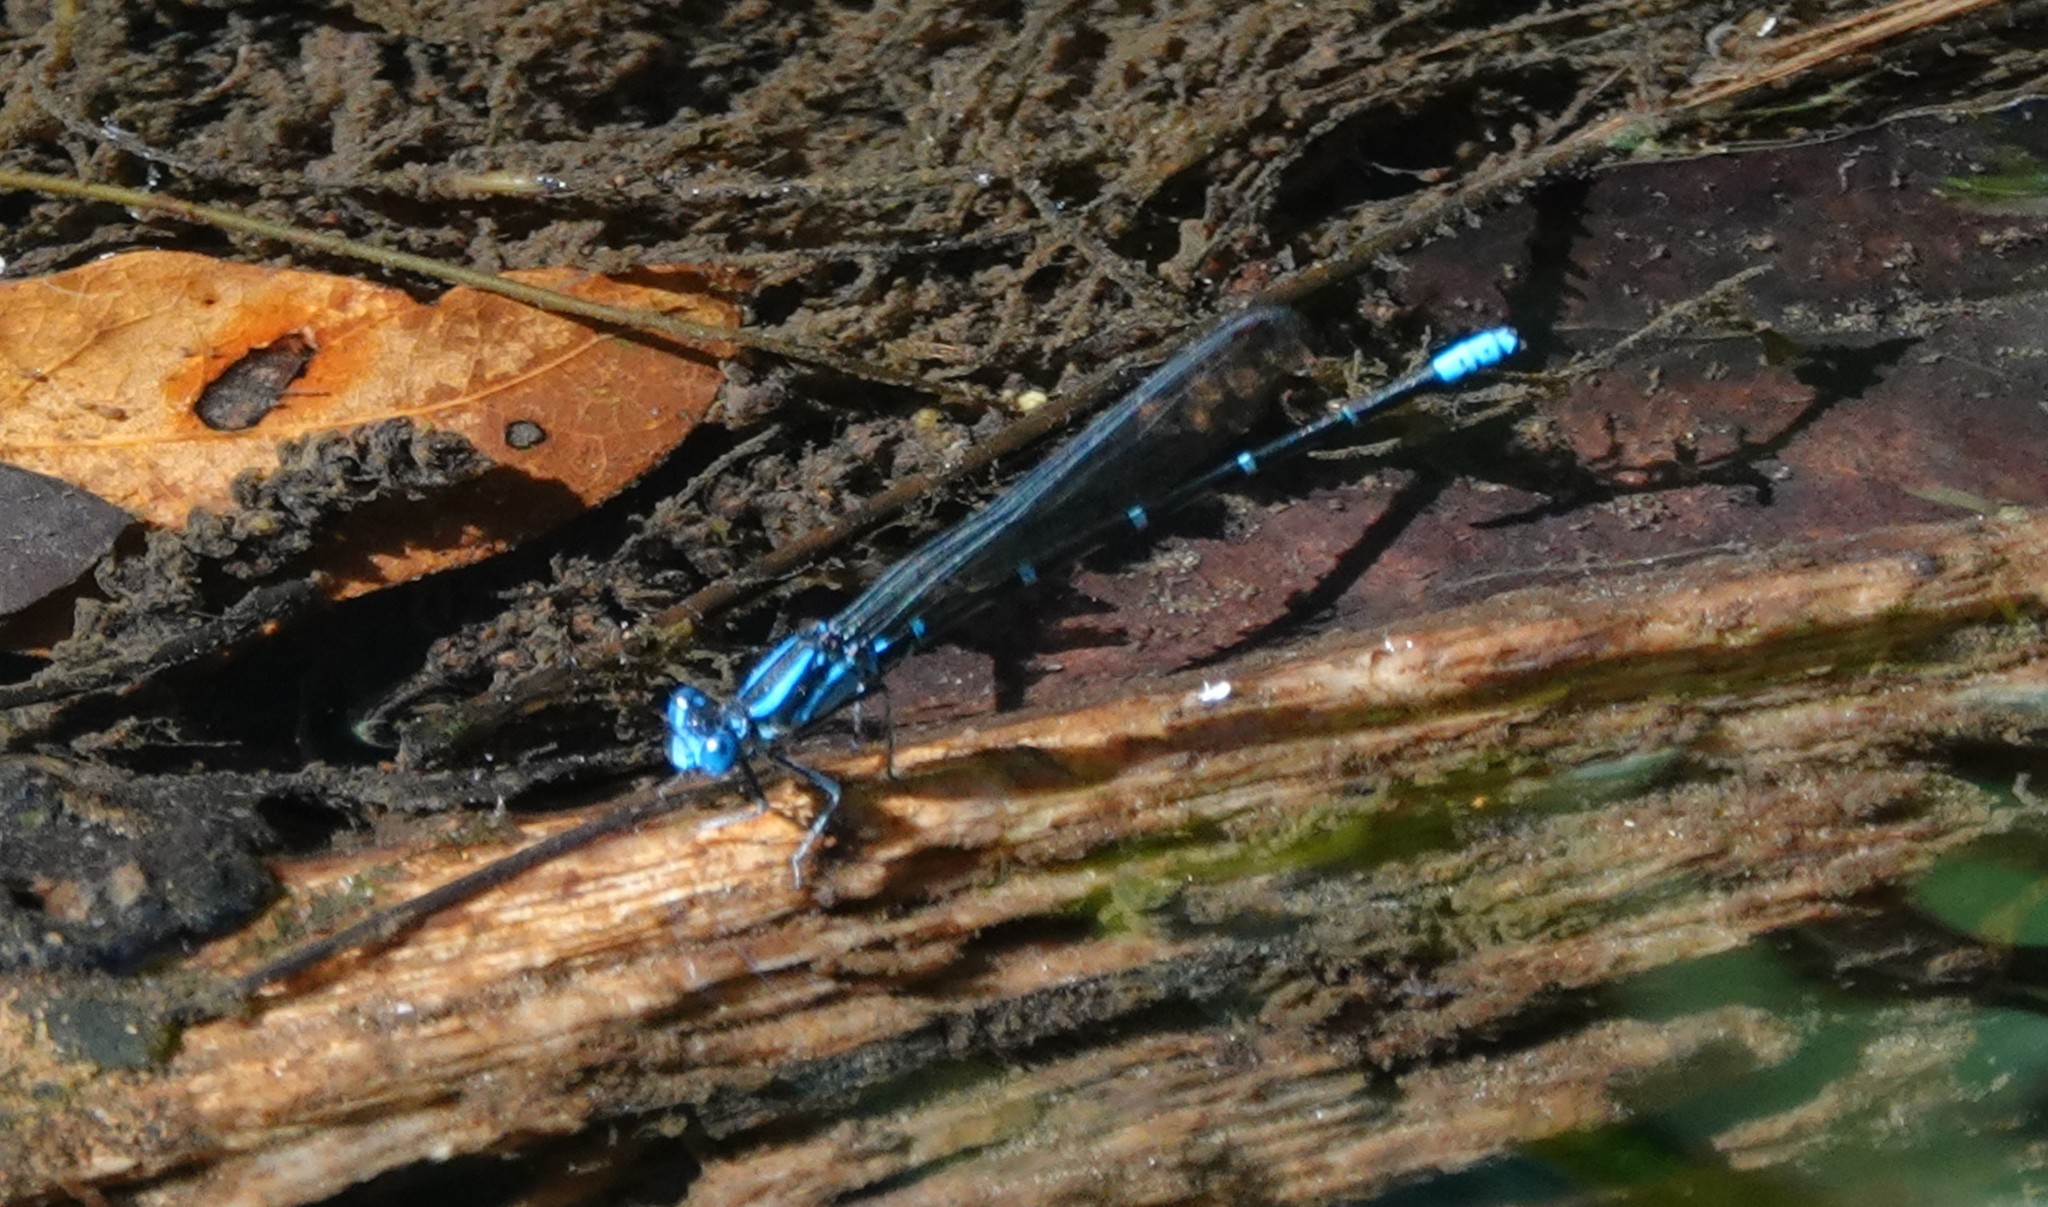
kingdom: Animalia
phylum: Arthropoda
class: Insecta
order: Odonata
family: Coenagrionidae
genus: Argia
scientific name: Argia sedula
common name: Blue-ringed dancer
